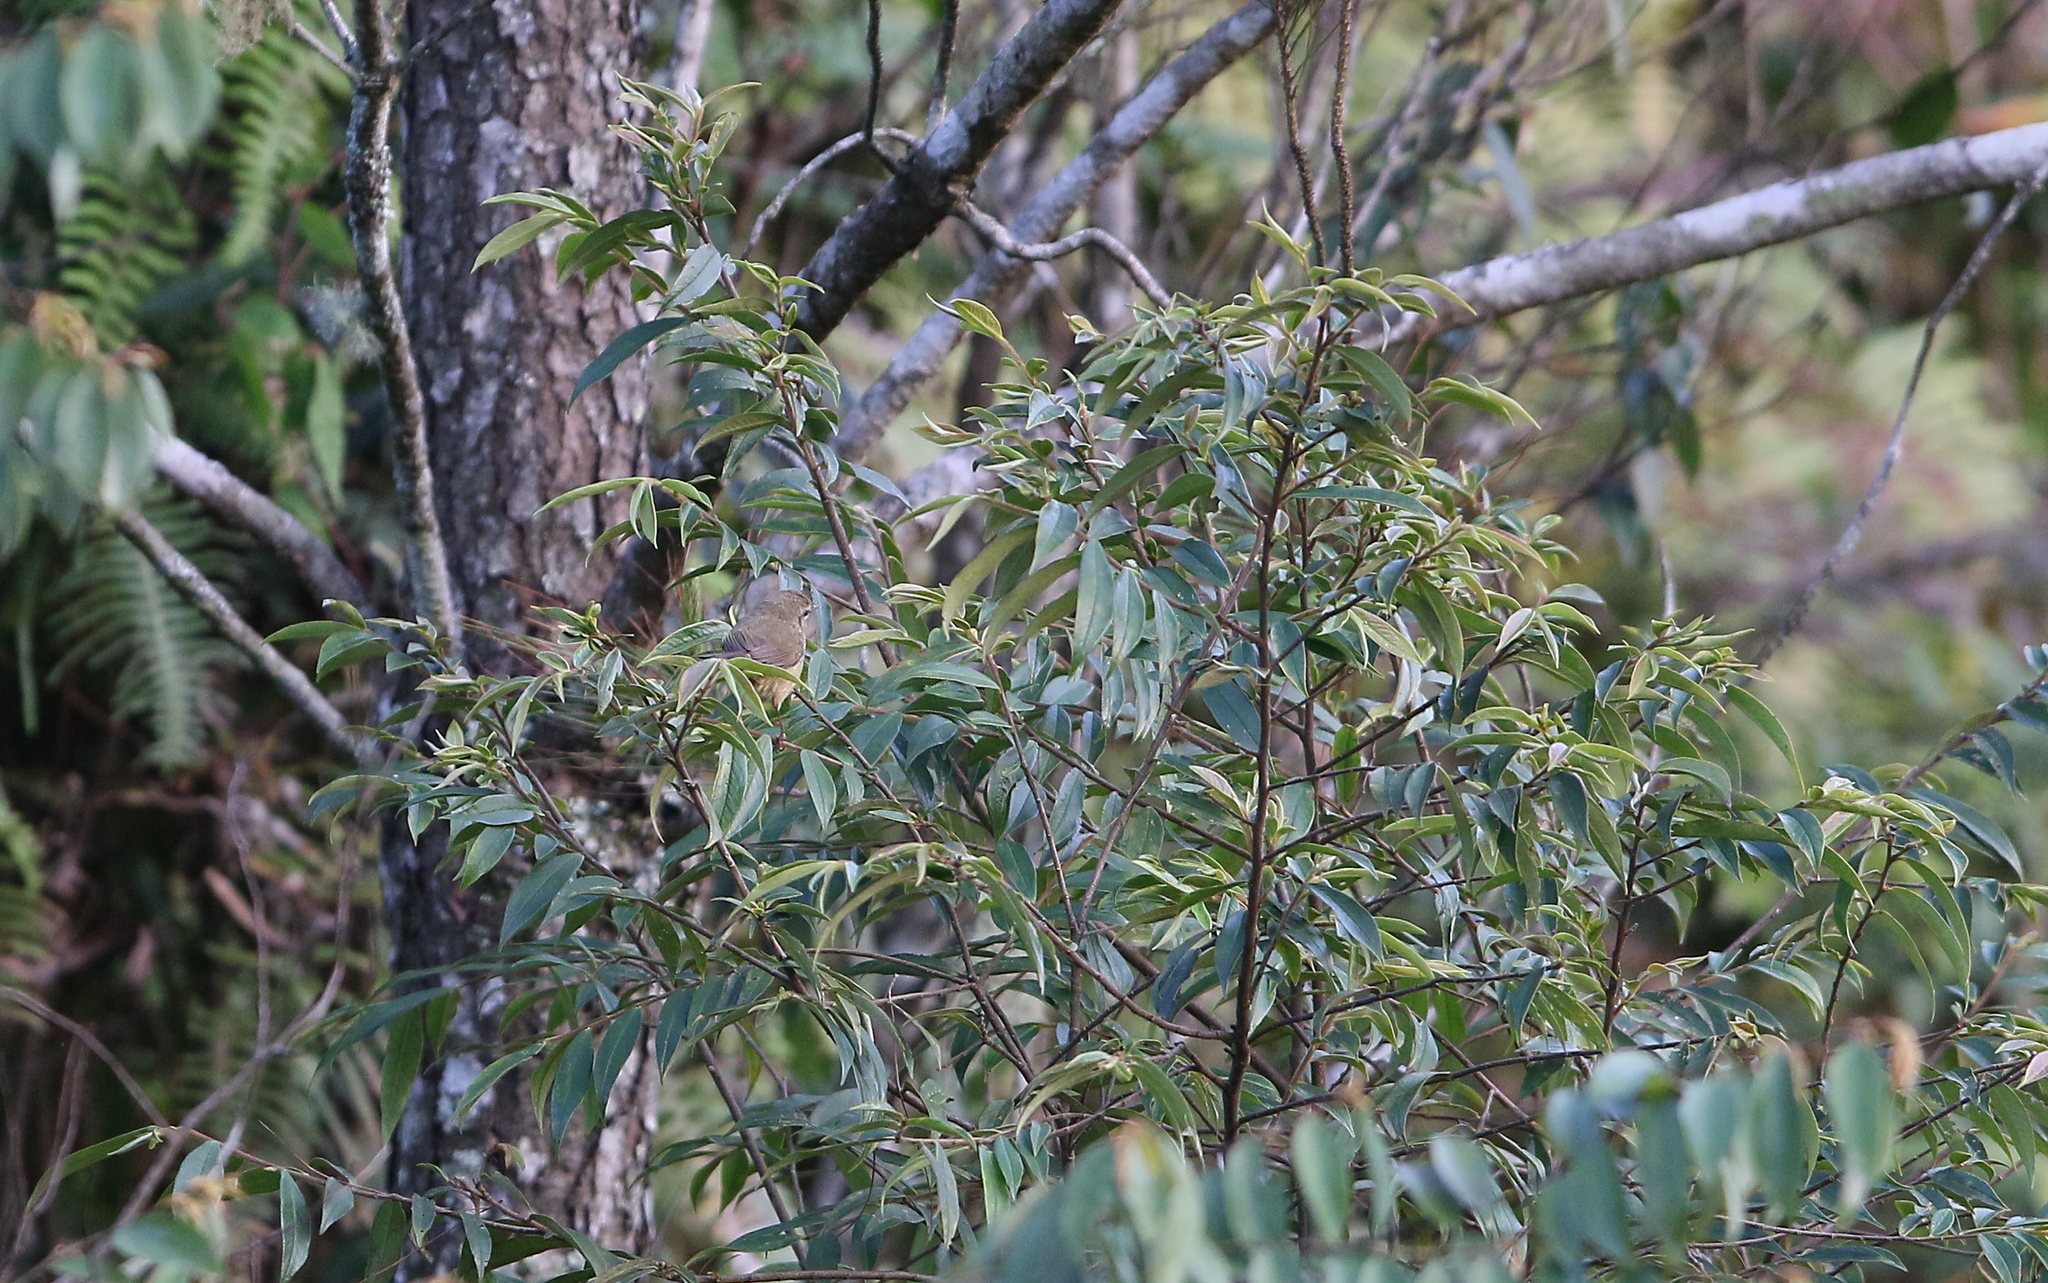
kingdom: Animalia
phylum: Chordata
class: Aves
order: Passeriformes
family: Phylloscopidae
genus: Phylloscopus
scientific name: Phylloscopus fuscatus
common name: Dusky warbler
